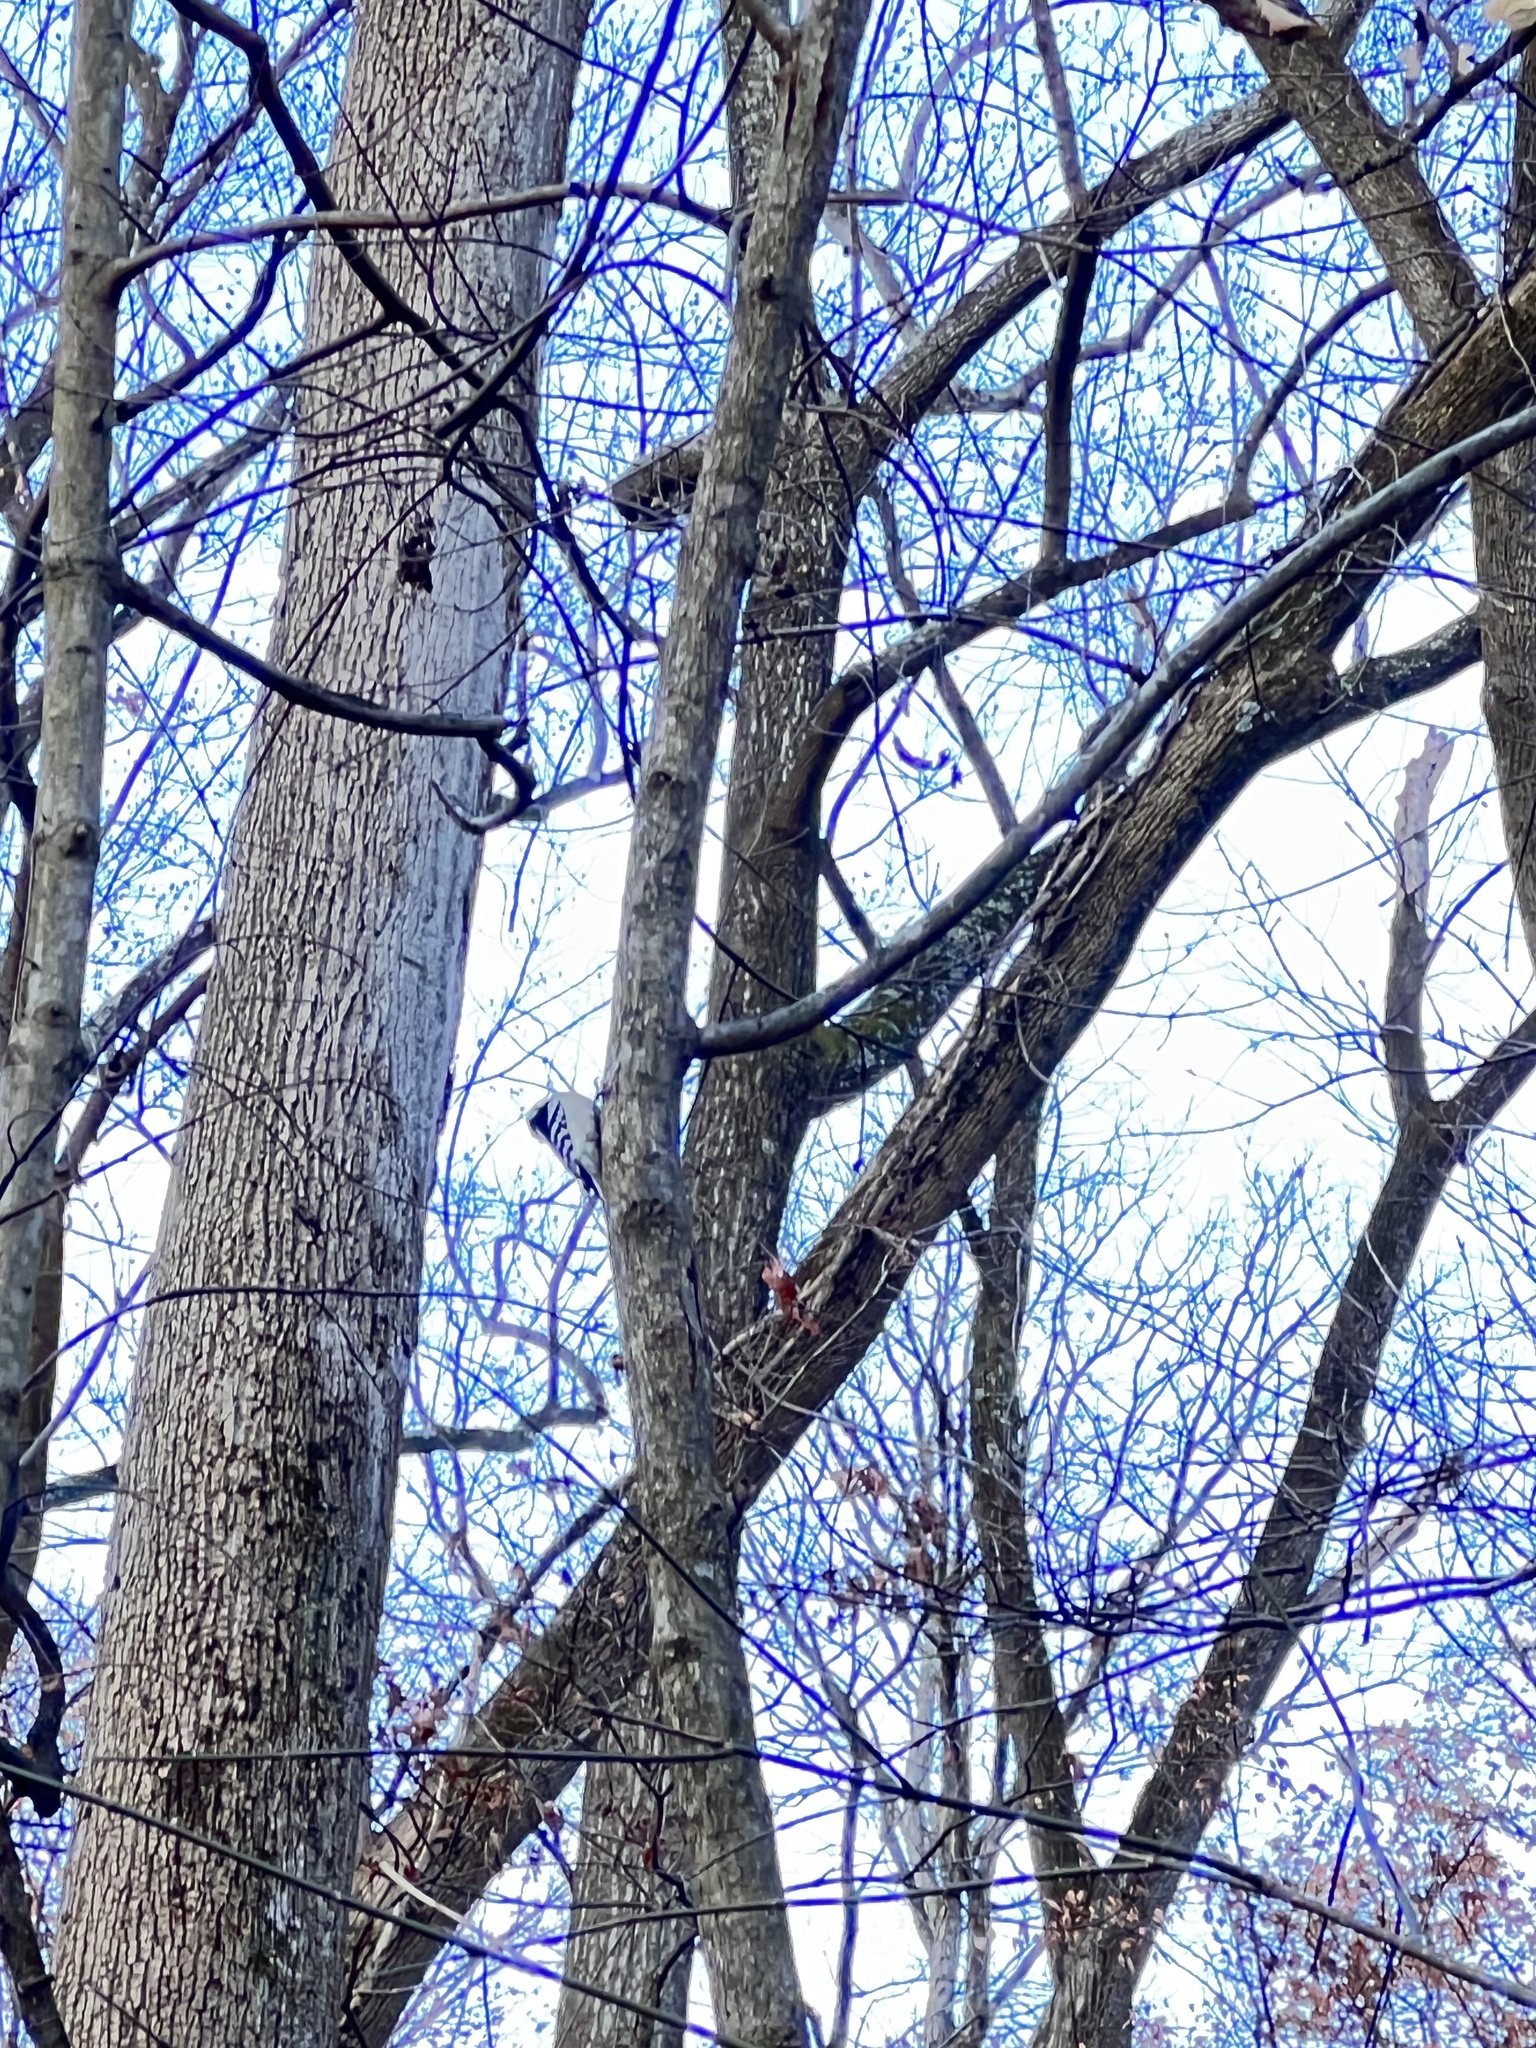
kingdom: Animalia
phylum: Chordata
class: Aves
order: Piciformes
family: Picidae
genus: Dryobates
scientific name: Dryobates pubescens
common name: Downy woodpecker
